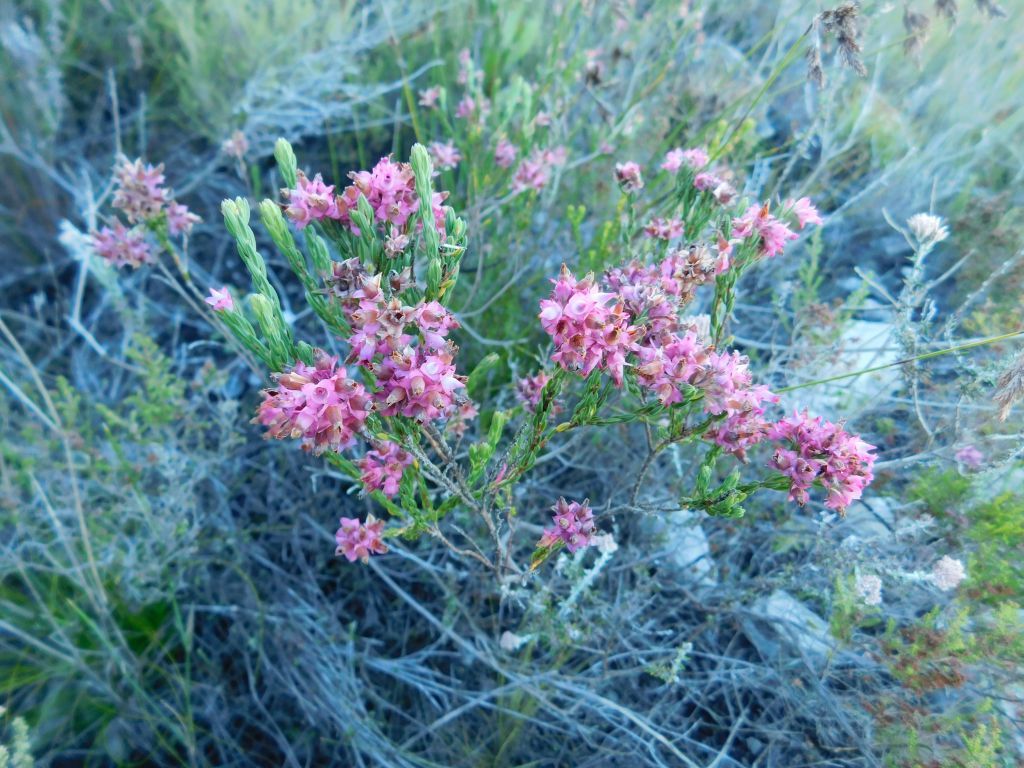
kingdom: Plantae
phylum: Tracheophyta
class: Magnoliopsida
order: Ericales
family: Ericaceae
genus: Erica
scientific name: Erica corifolia
